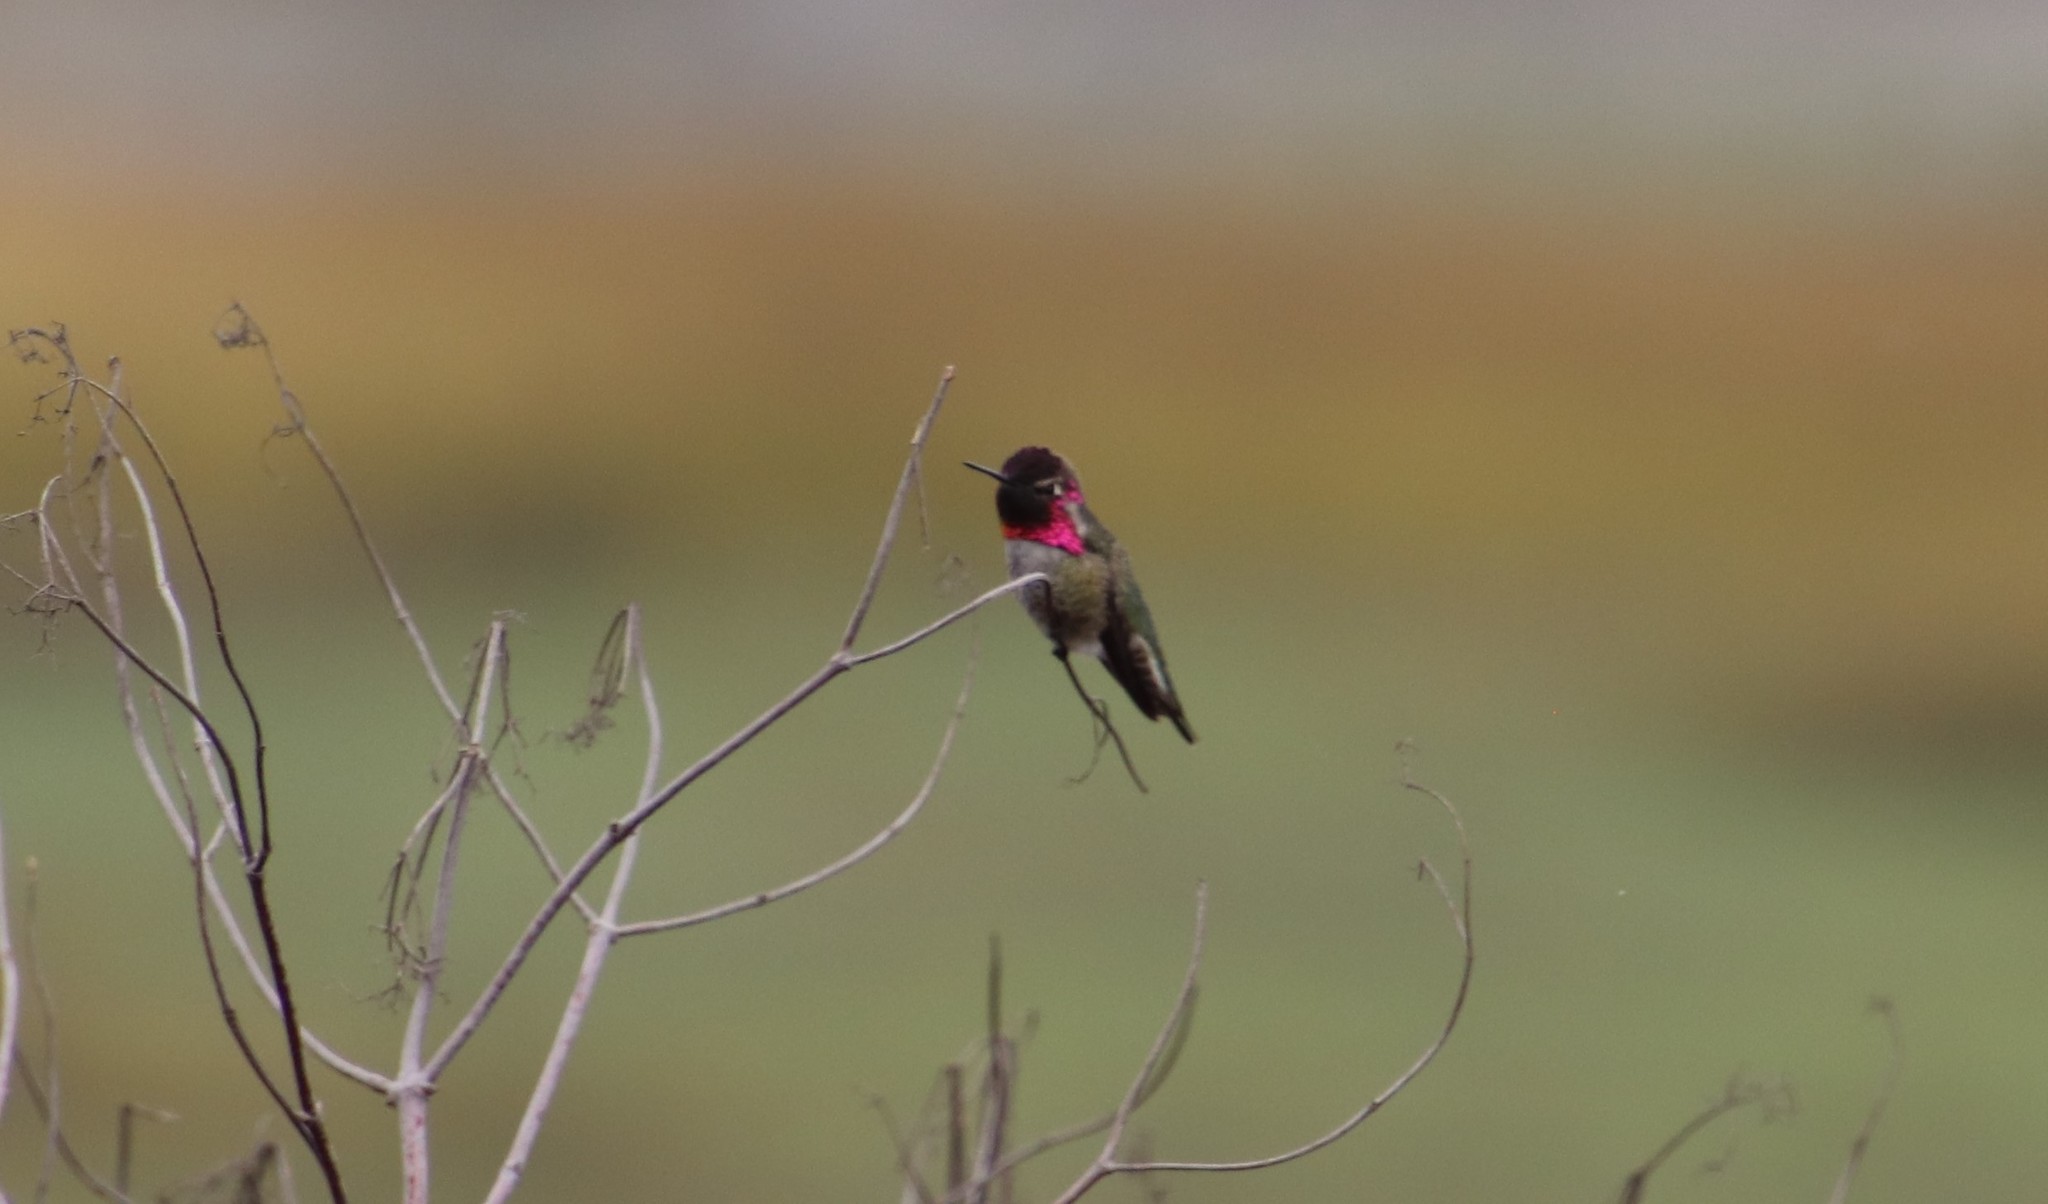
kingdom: Animalia
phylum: Chordata
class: Aves
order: Apodiformes
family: Trochilidae
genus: Calypte
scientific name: Calypte anna
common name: Anna's hummingbird
